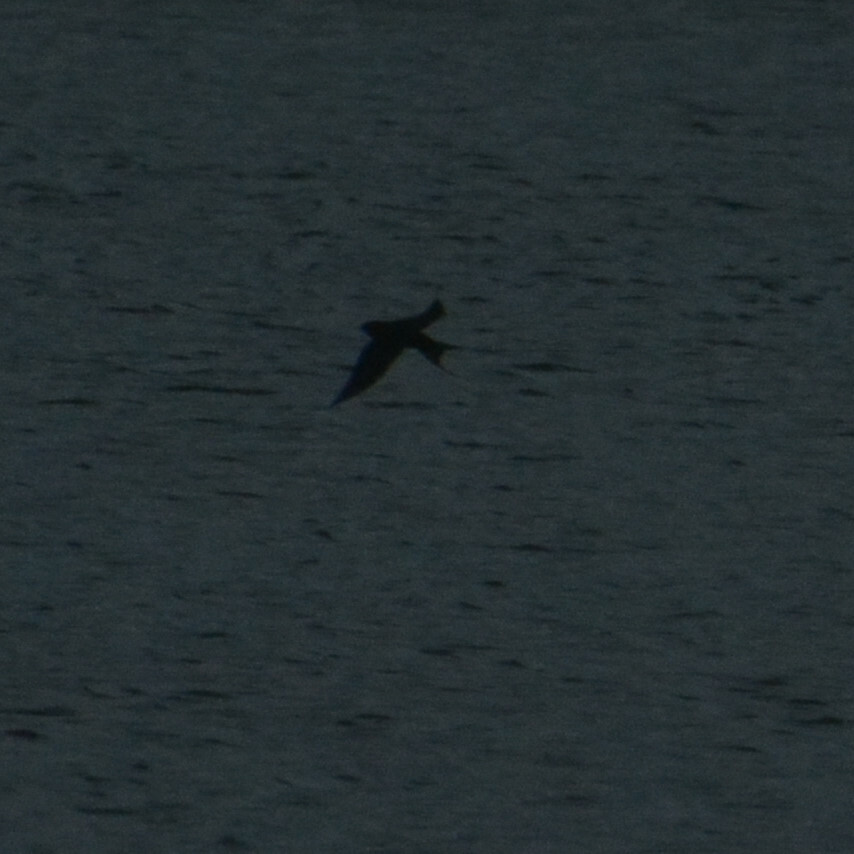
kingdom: Animalia
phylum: Chordata
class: Aves
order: Passeriformes
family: Hirundinidae
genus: Hirundo
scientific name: Hirundo rustica
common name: Barn swallow
